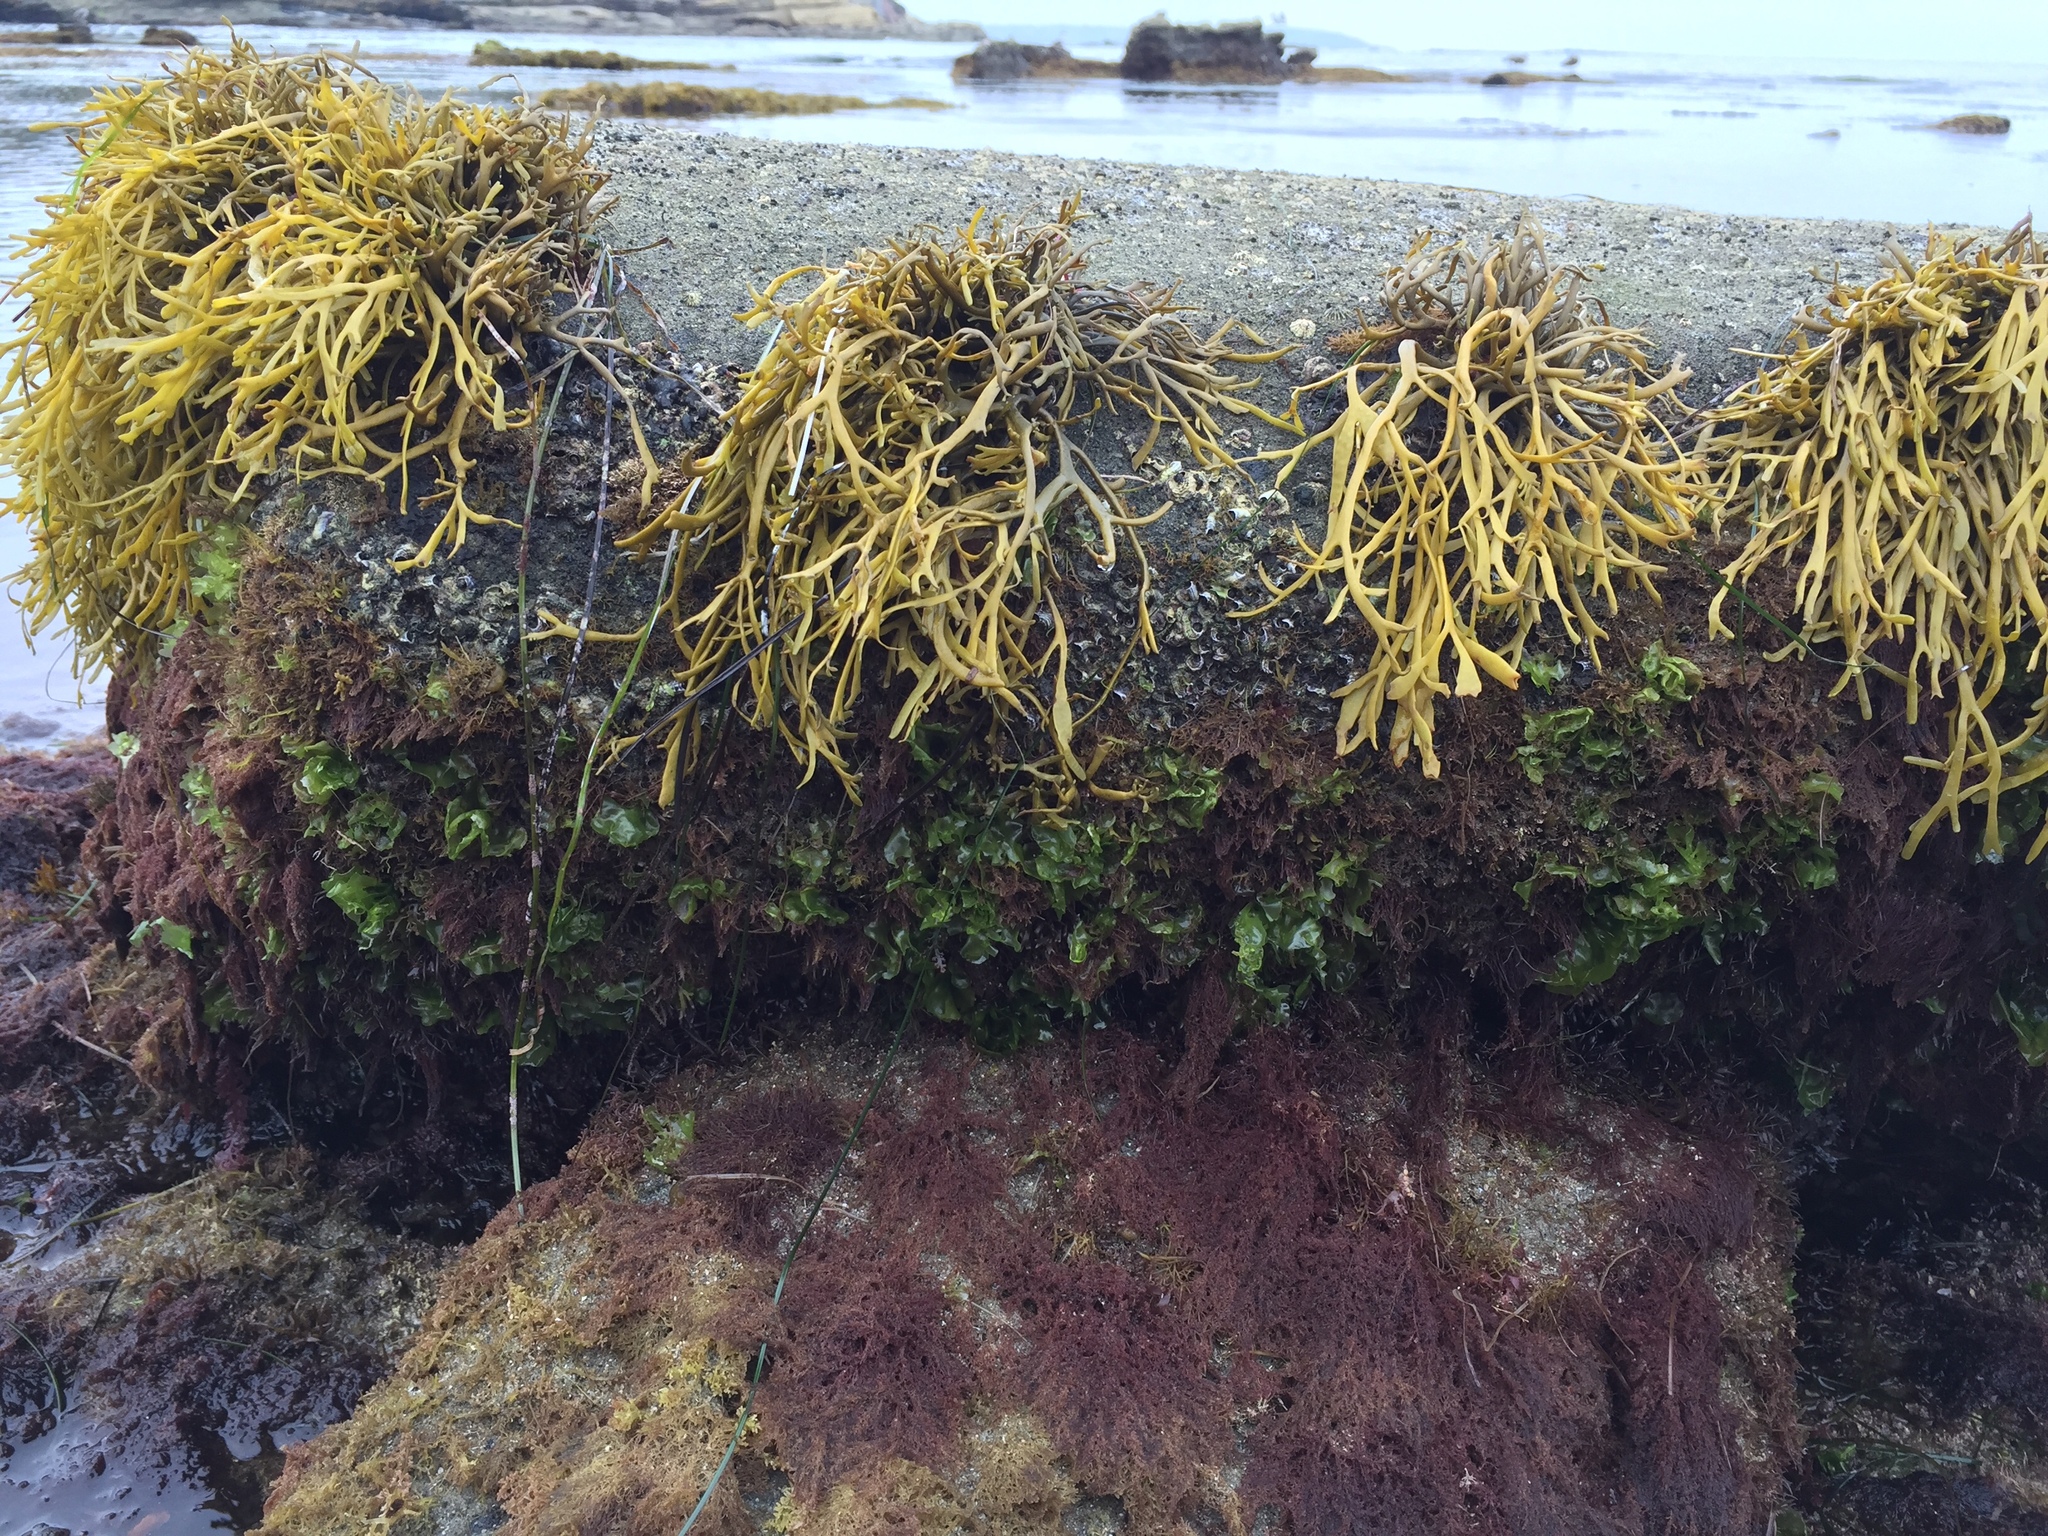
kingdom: Chromista
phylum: Ochrophyta
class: Phaeophyceae
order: Fucales
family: Fucaceae
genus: Silvetia
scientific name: Silvetia
